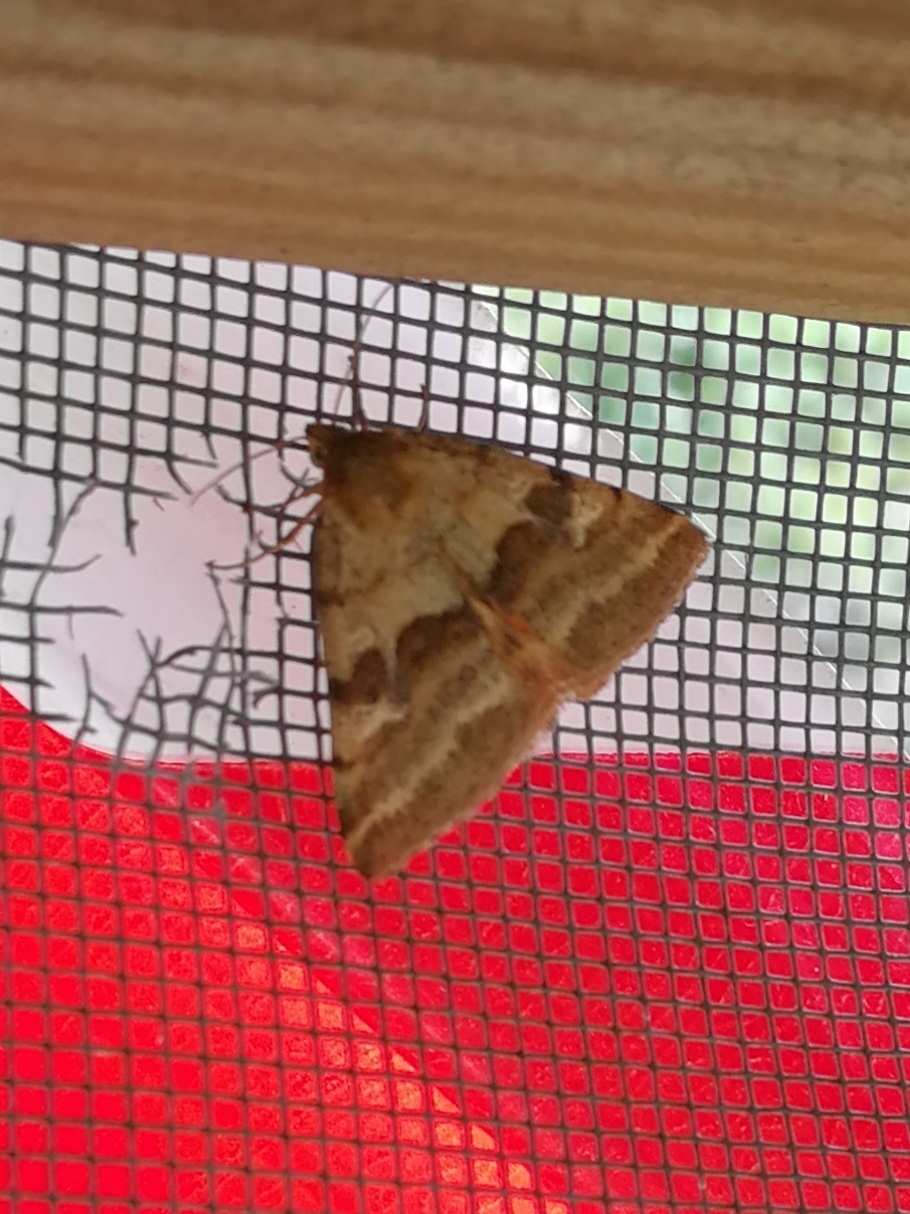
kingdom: Animalia
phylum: Arthropoda
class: Insecta
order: Lepidoptera
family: Noctuidae
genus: Synthymia
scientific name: Synthymia fixa
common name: Goldwing
